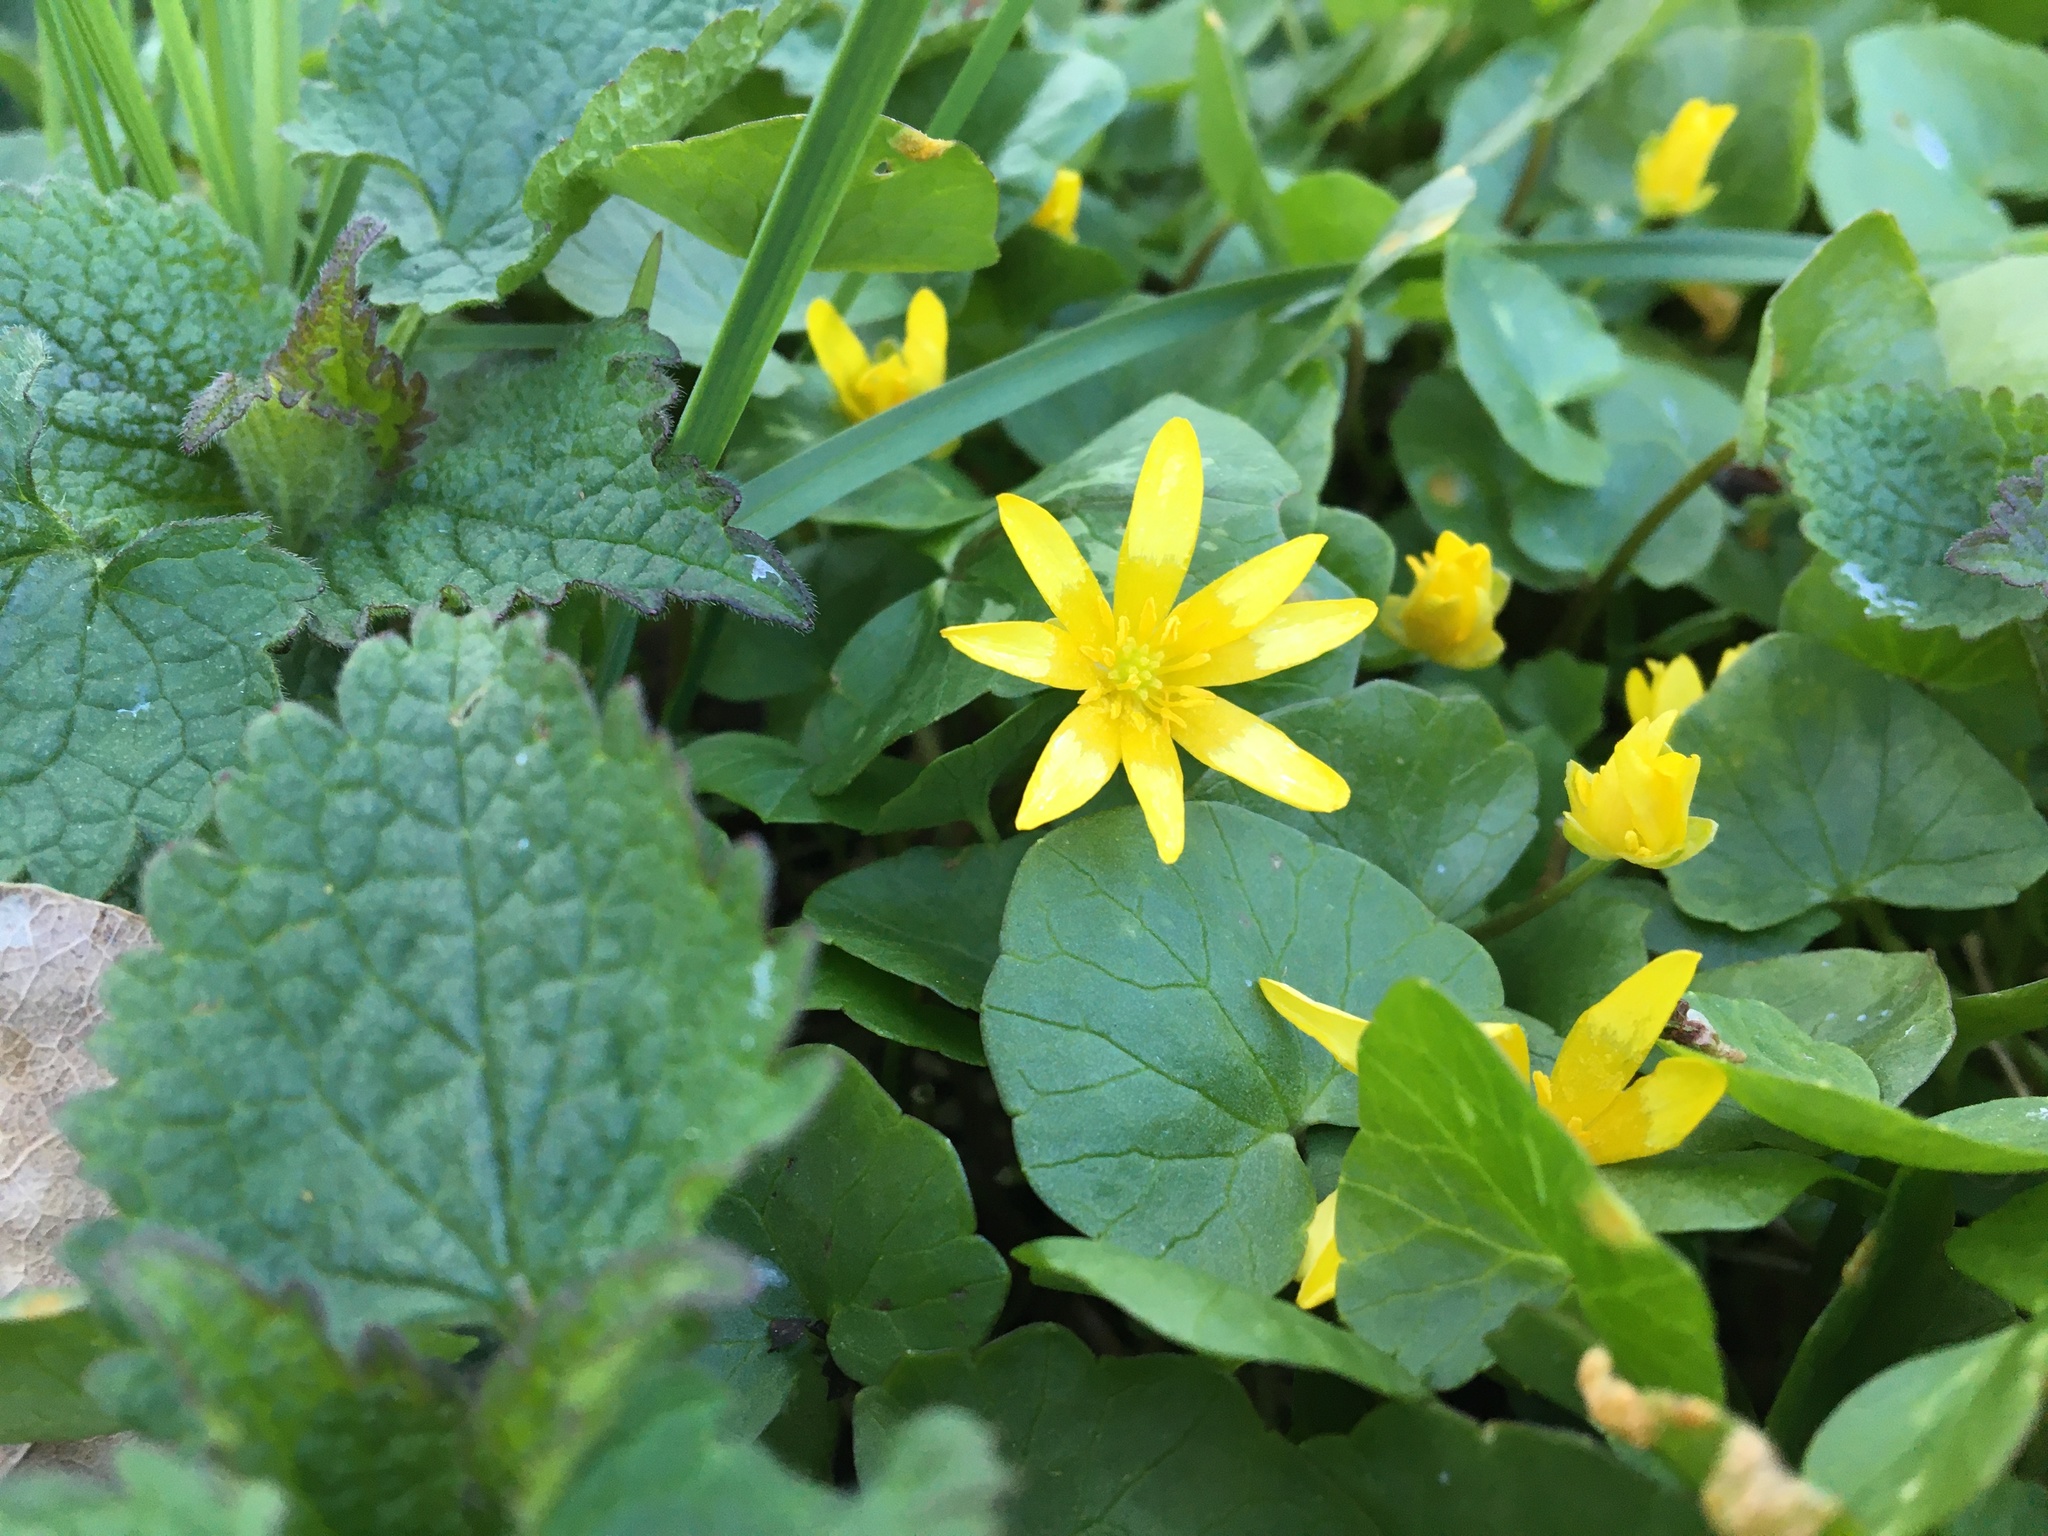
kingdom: Plantae
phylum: Tracheophyta
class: Magnoliopsida
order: Ranunculales
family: Ranunculaceae
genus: Ficaria
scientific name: Ficaria verna
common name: Lesser celandine
